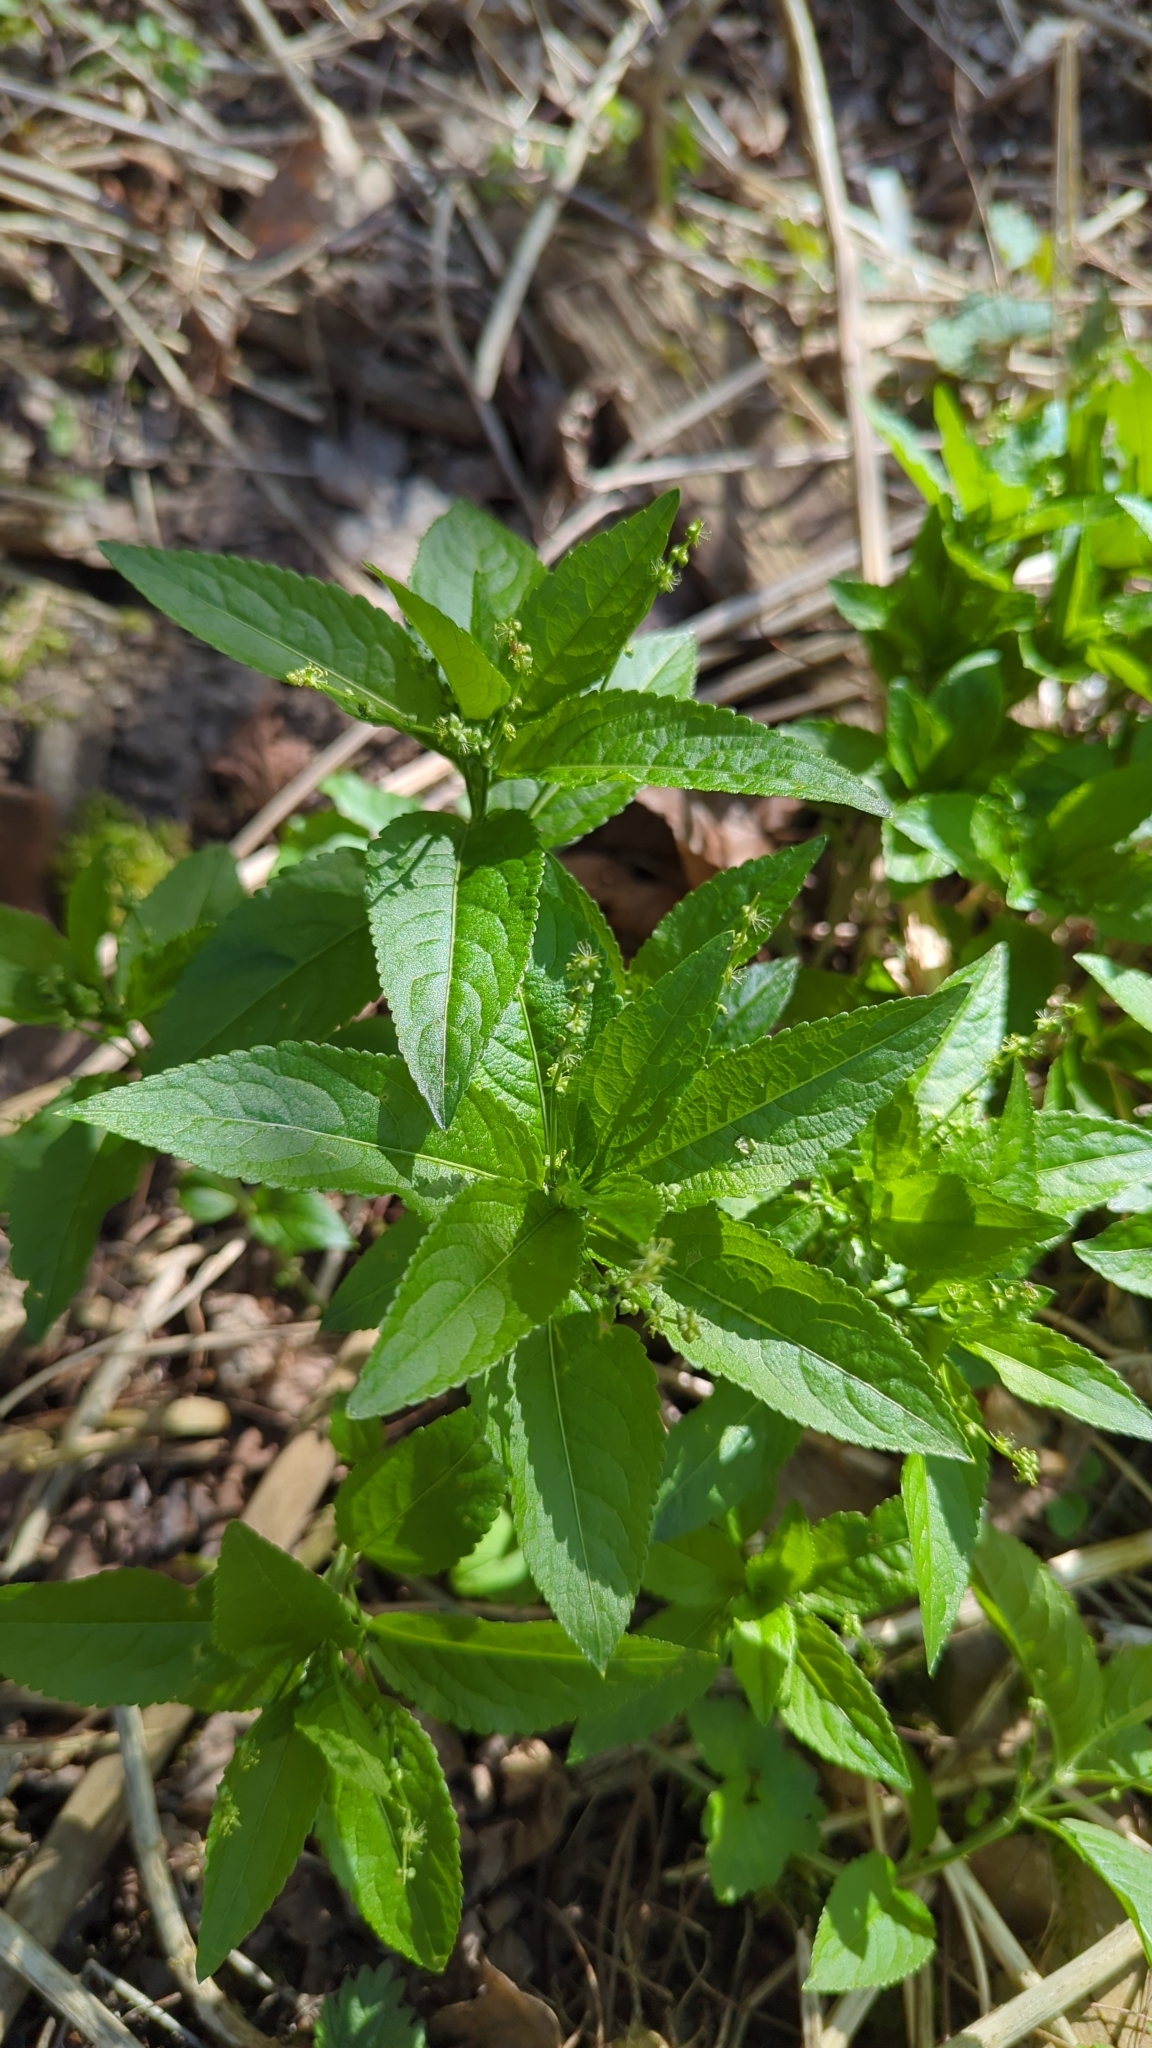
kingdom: Plantae
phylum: Tracheophyta
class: Magnoliopsida
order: Malpighiales
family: Euphorbiaceae
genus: Mercurialis
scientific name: Mercurialis perennis
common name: Dog mercury
